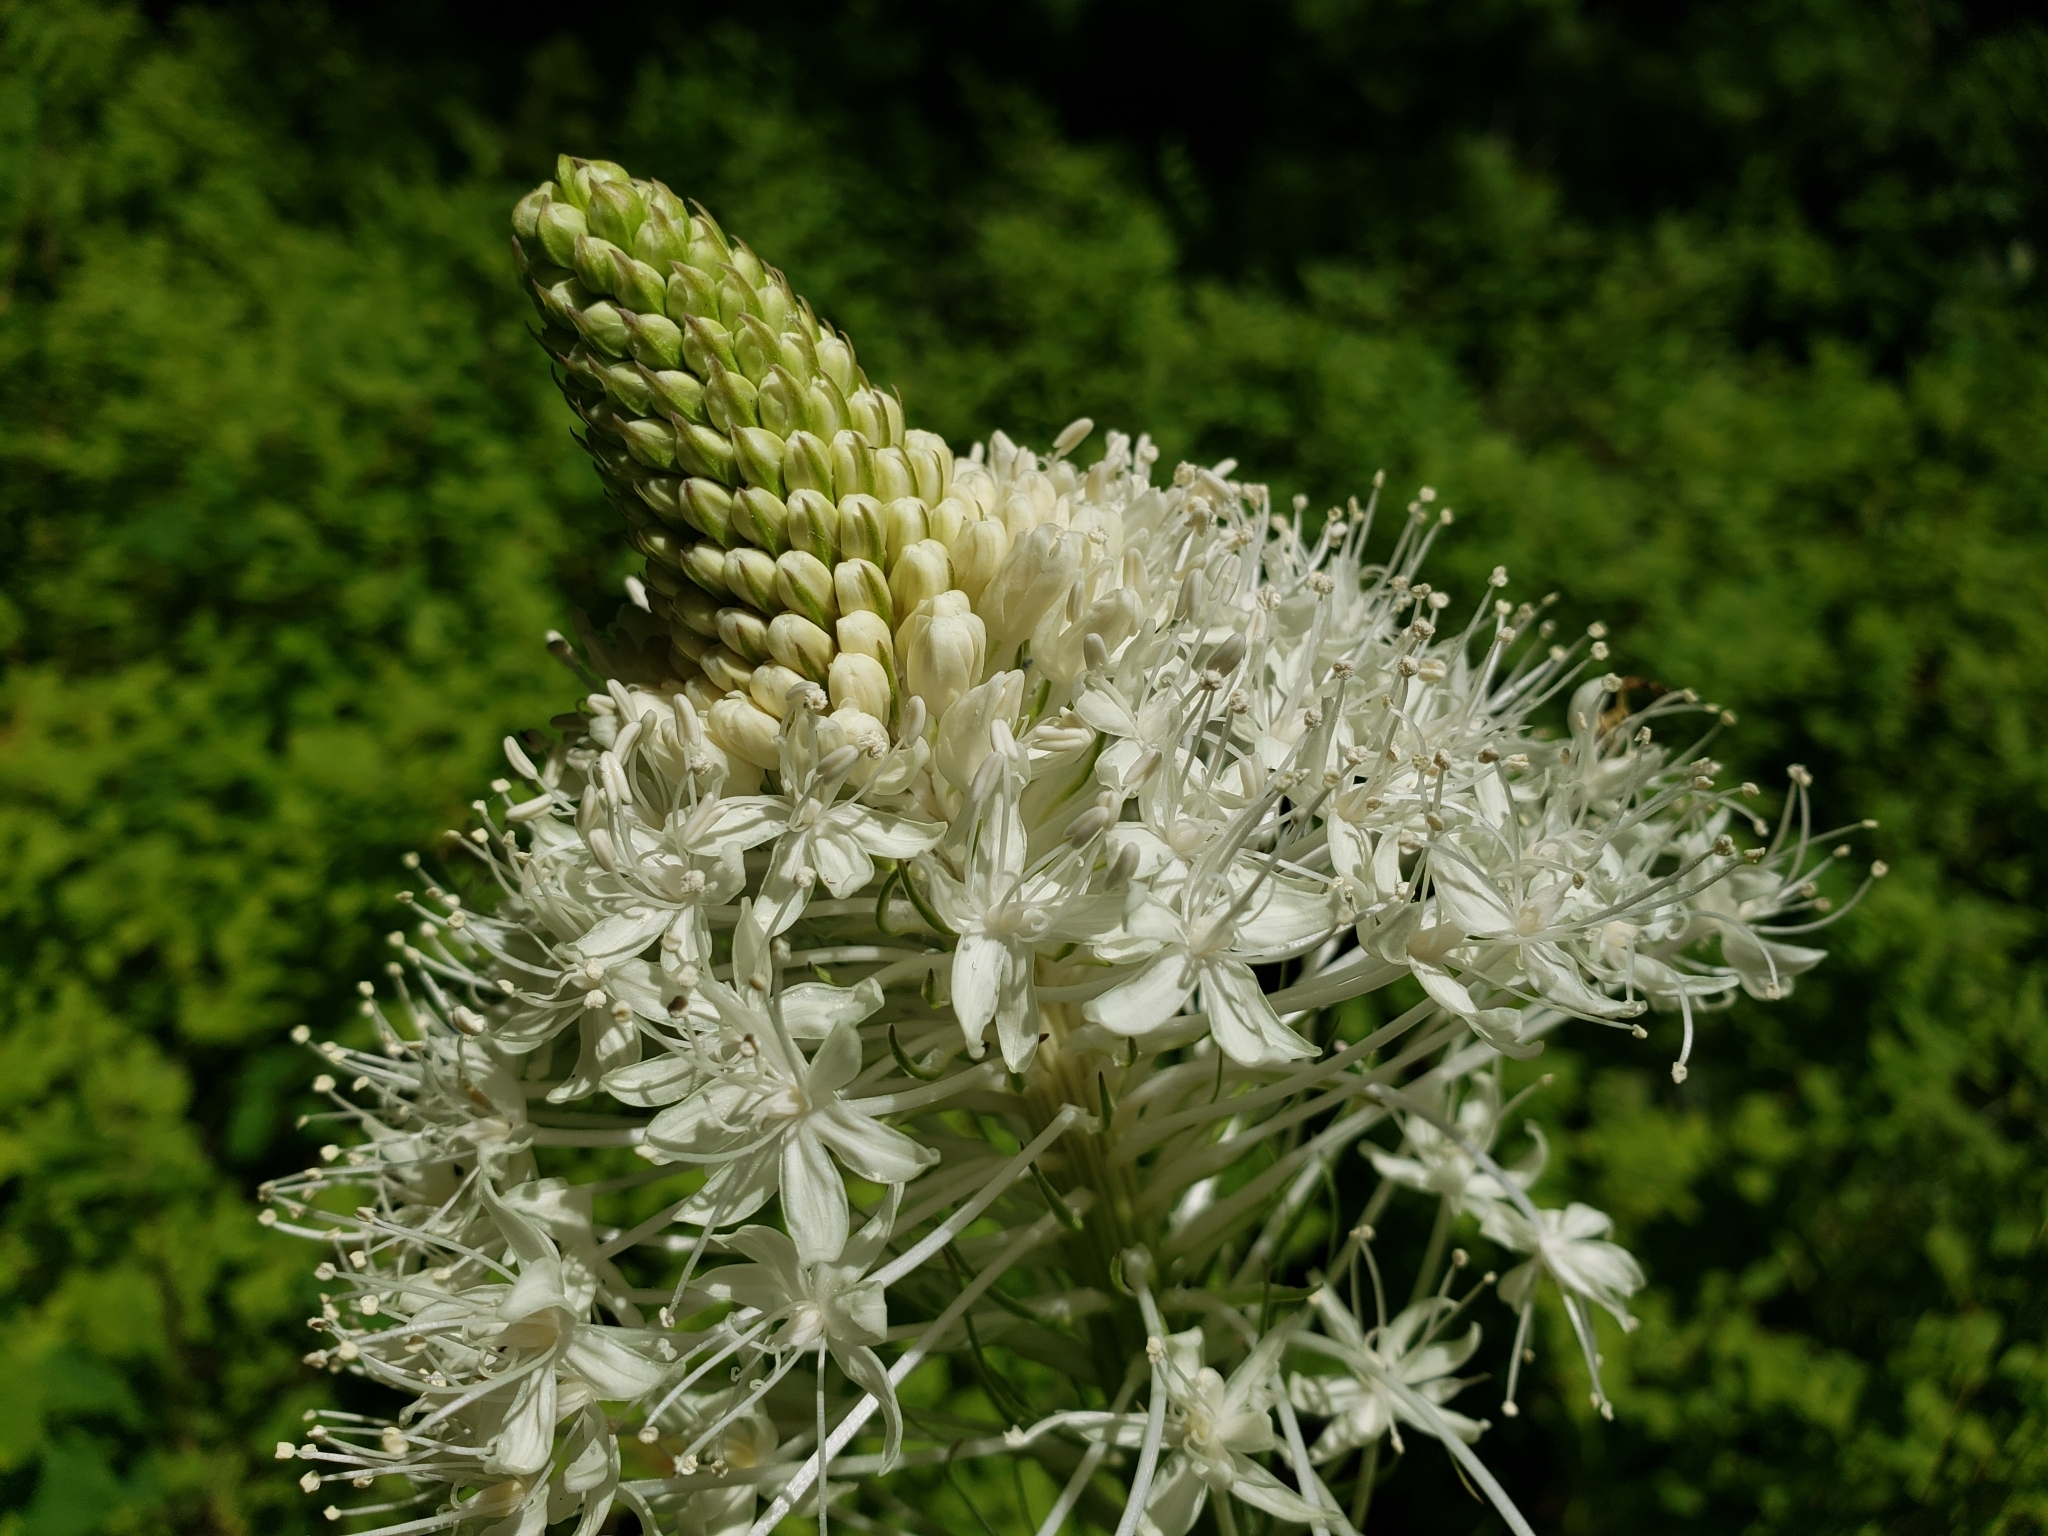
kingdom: Plantae
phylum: Tracheophyta
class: Liliopsida
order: Liliales
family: Melanthiaceae
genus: Xerophyllum
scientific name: Xerophyllum tenax
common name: Bear-grass
